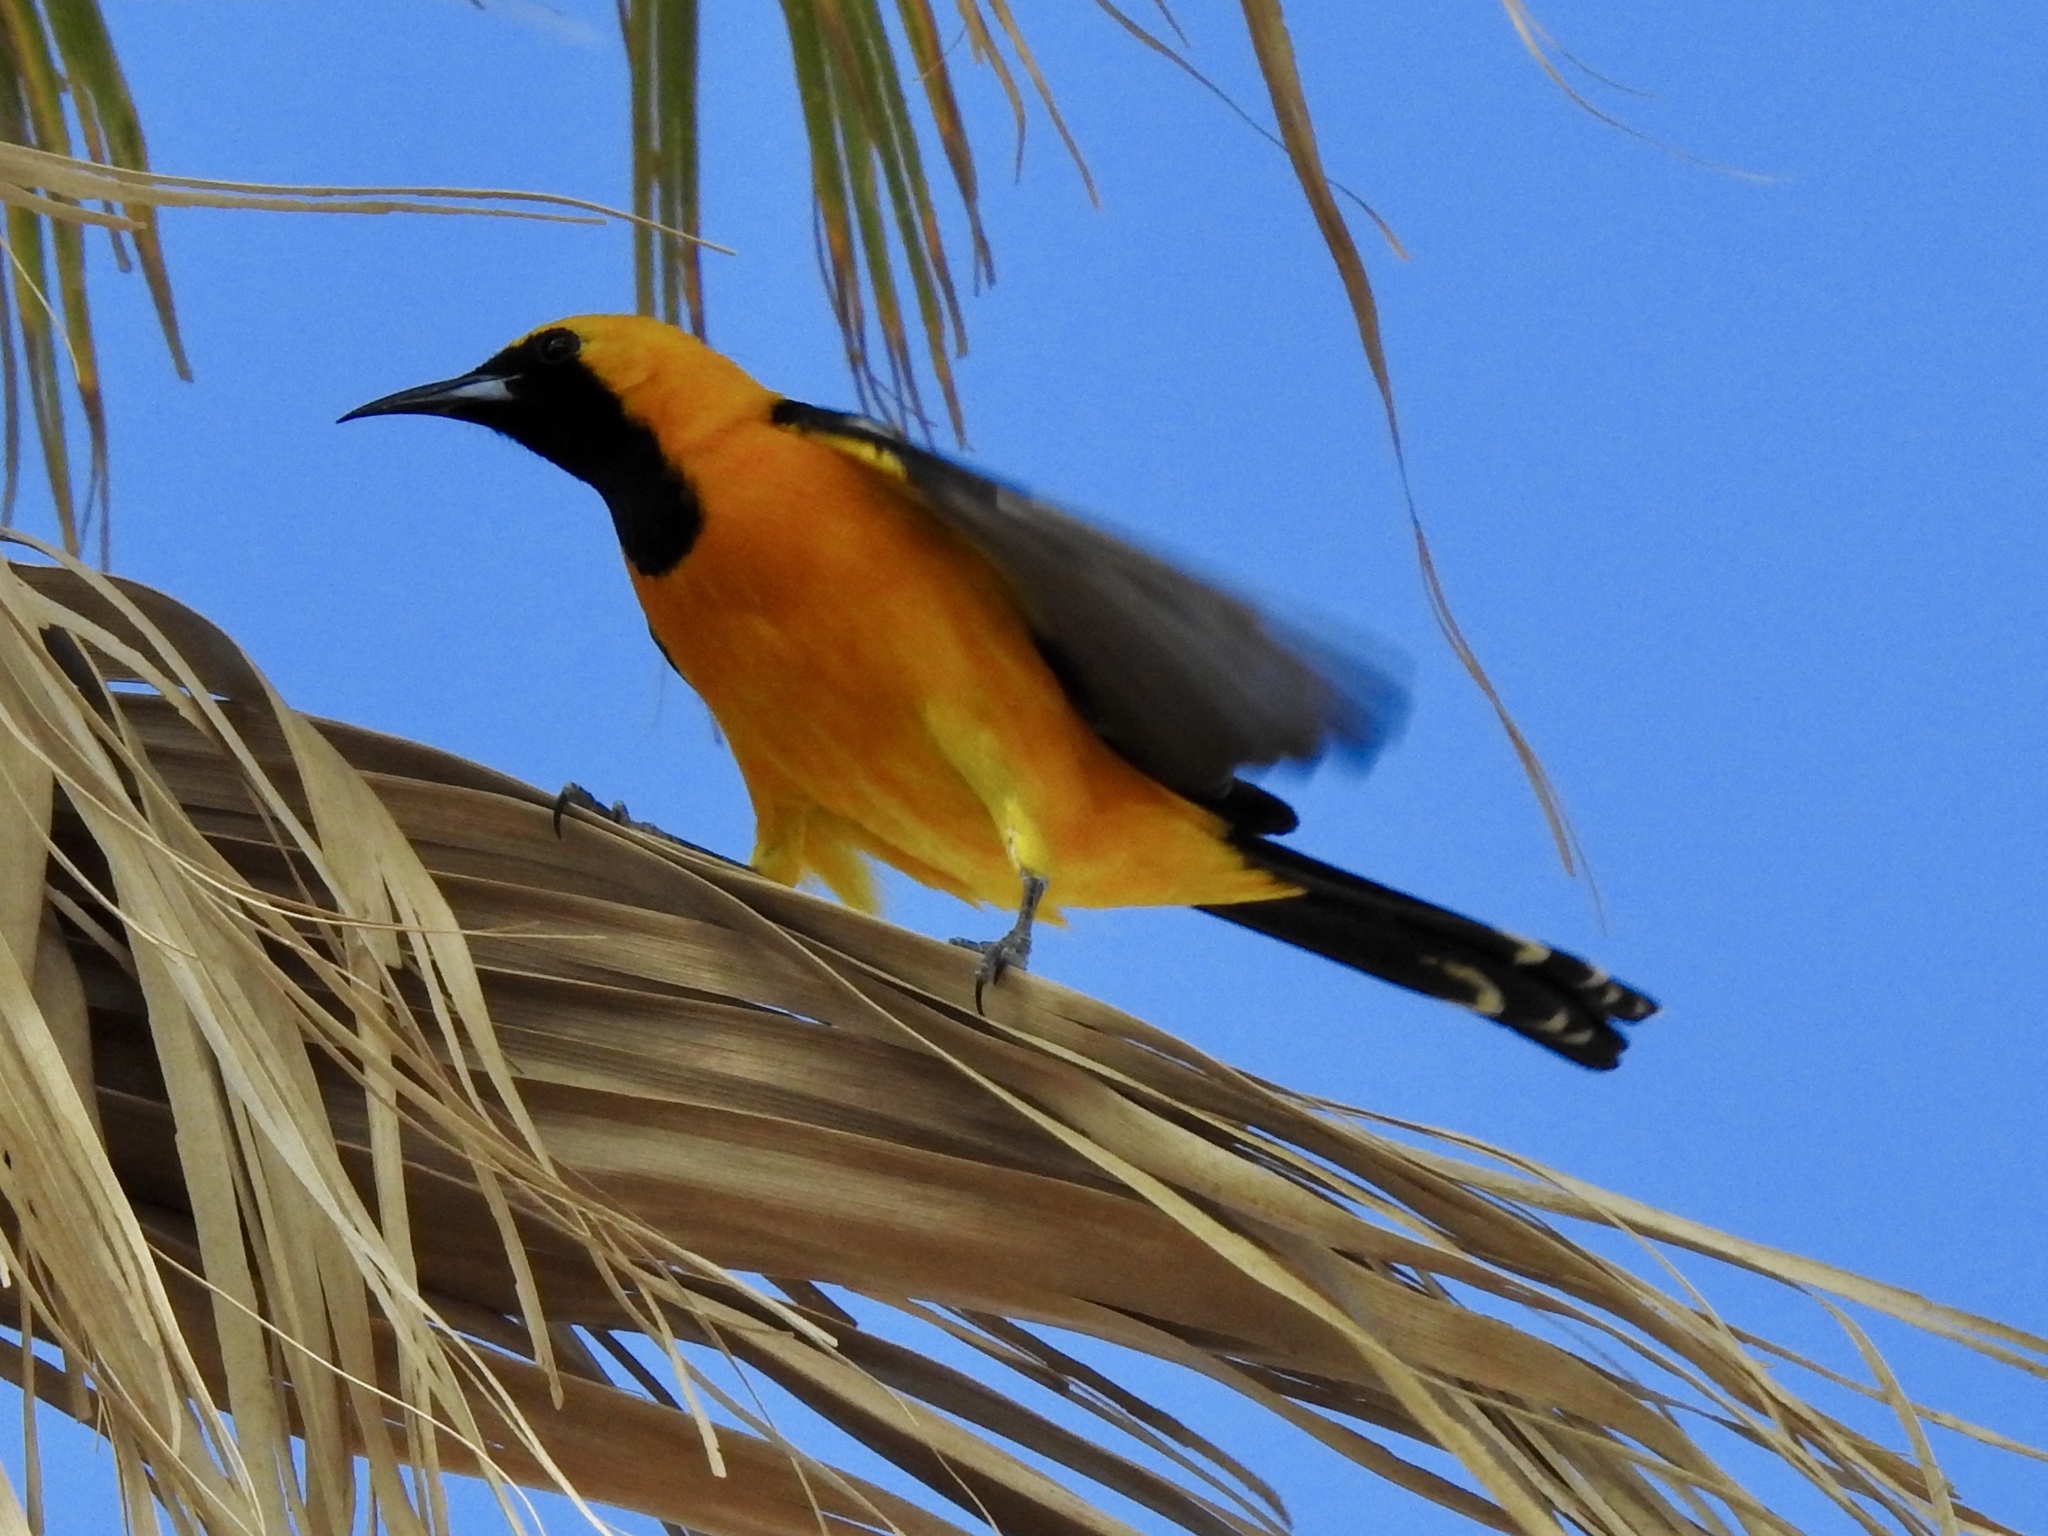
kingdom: Animalia
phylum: Chordata
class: Aves
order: Passeriformes
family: Icteridae
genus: Icterus
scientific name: Icterus cucullatus
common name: Hooded oriole
